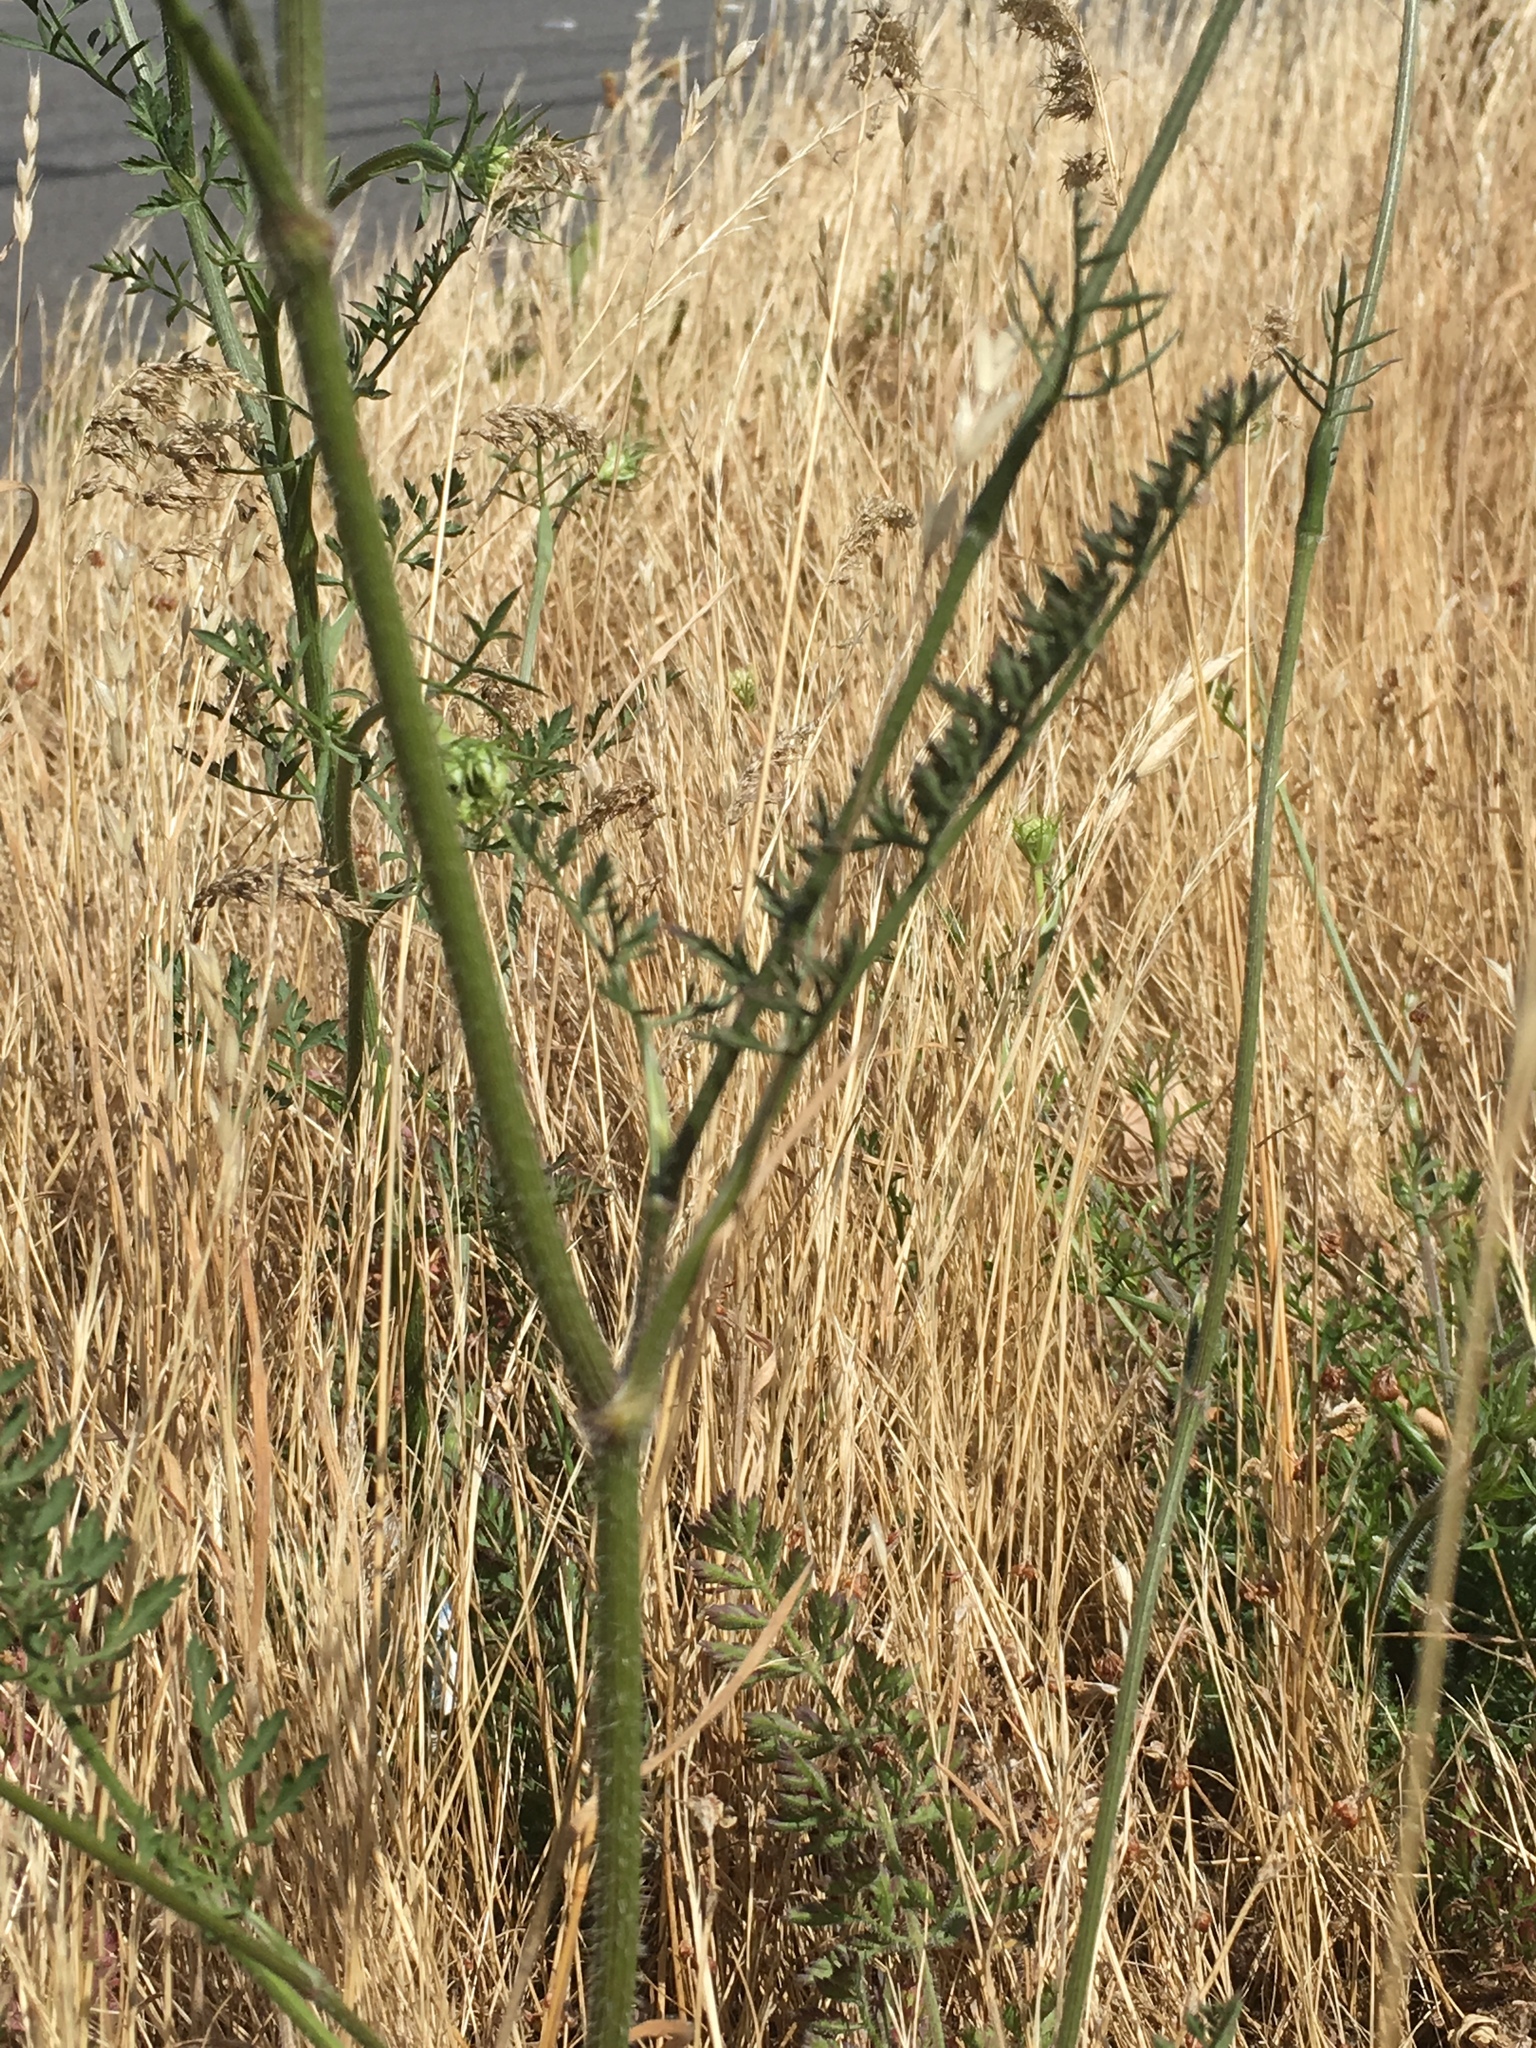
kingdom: Plantae
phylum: Tracheophyta
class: Magnoliopsida
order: Apiales
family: Apiaceae
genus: Daucus
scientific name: Daucus carota
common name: Wild carrot
